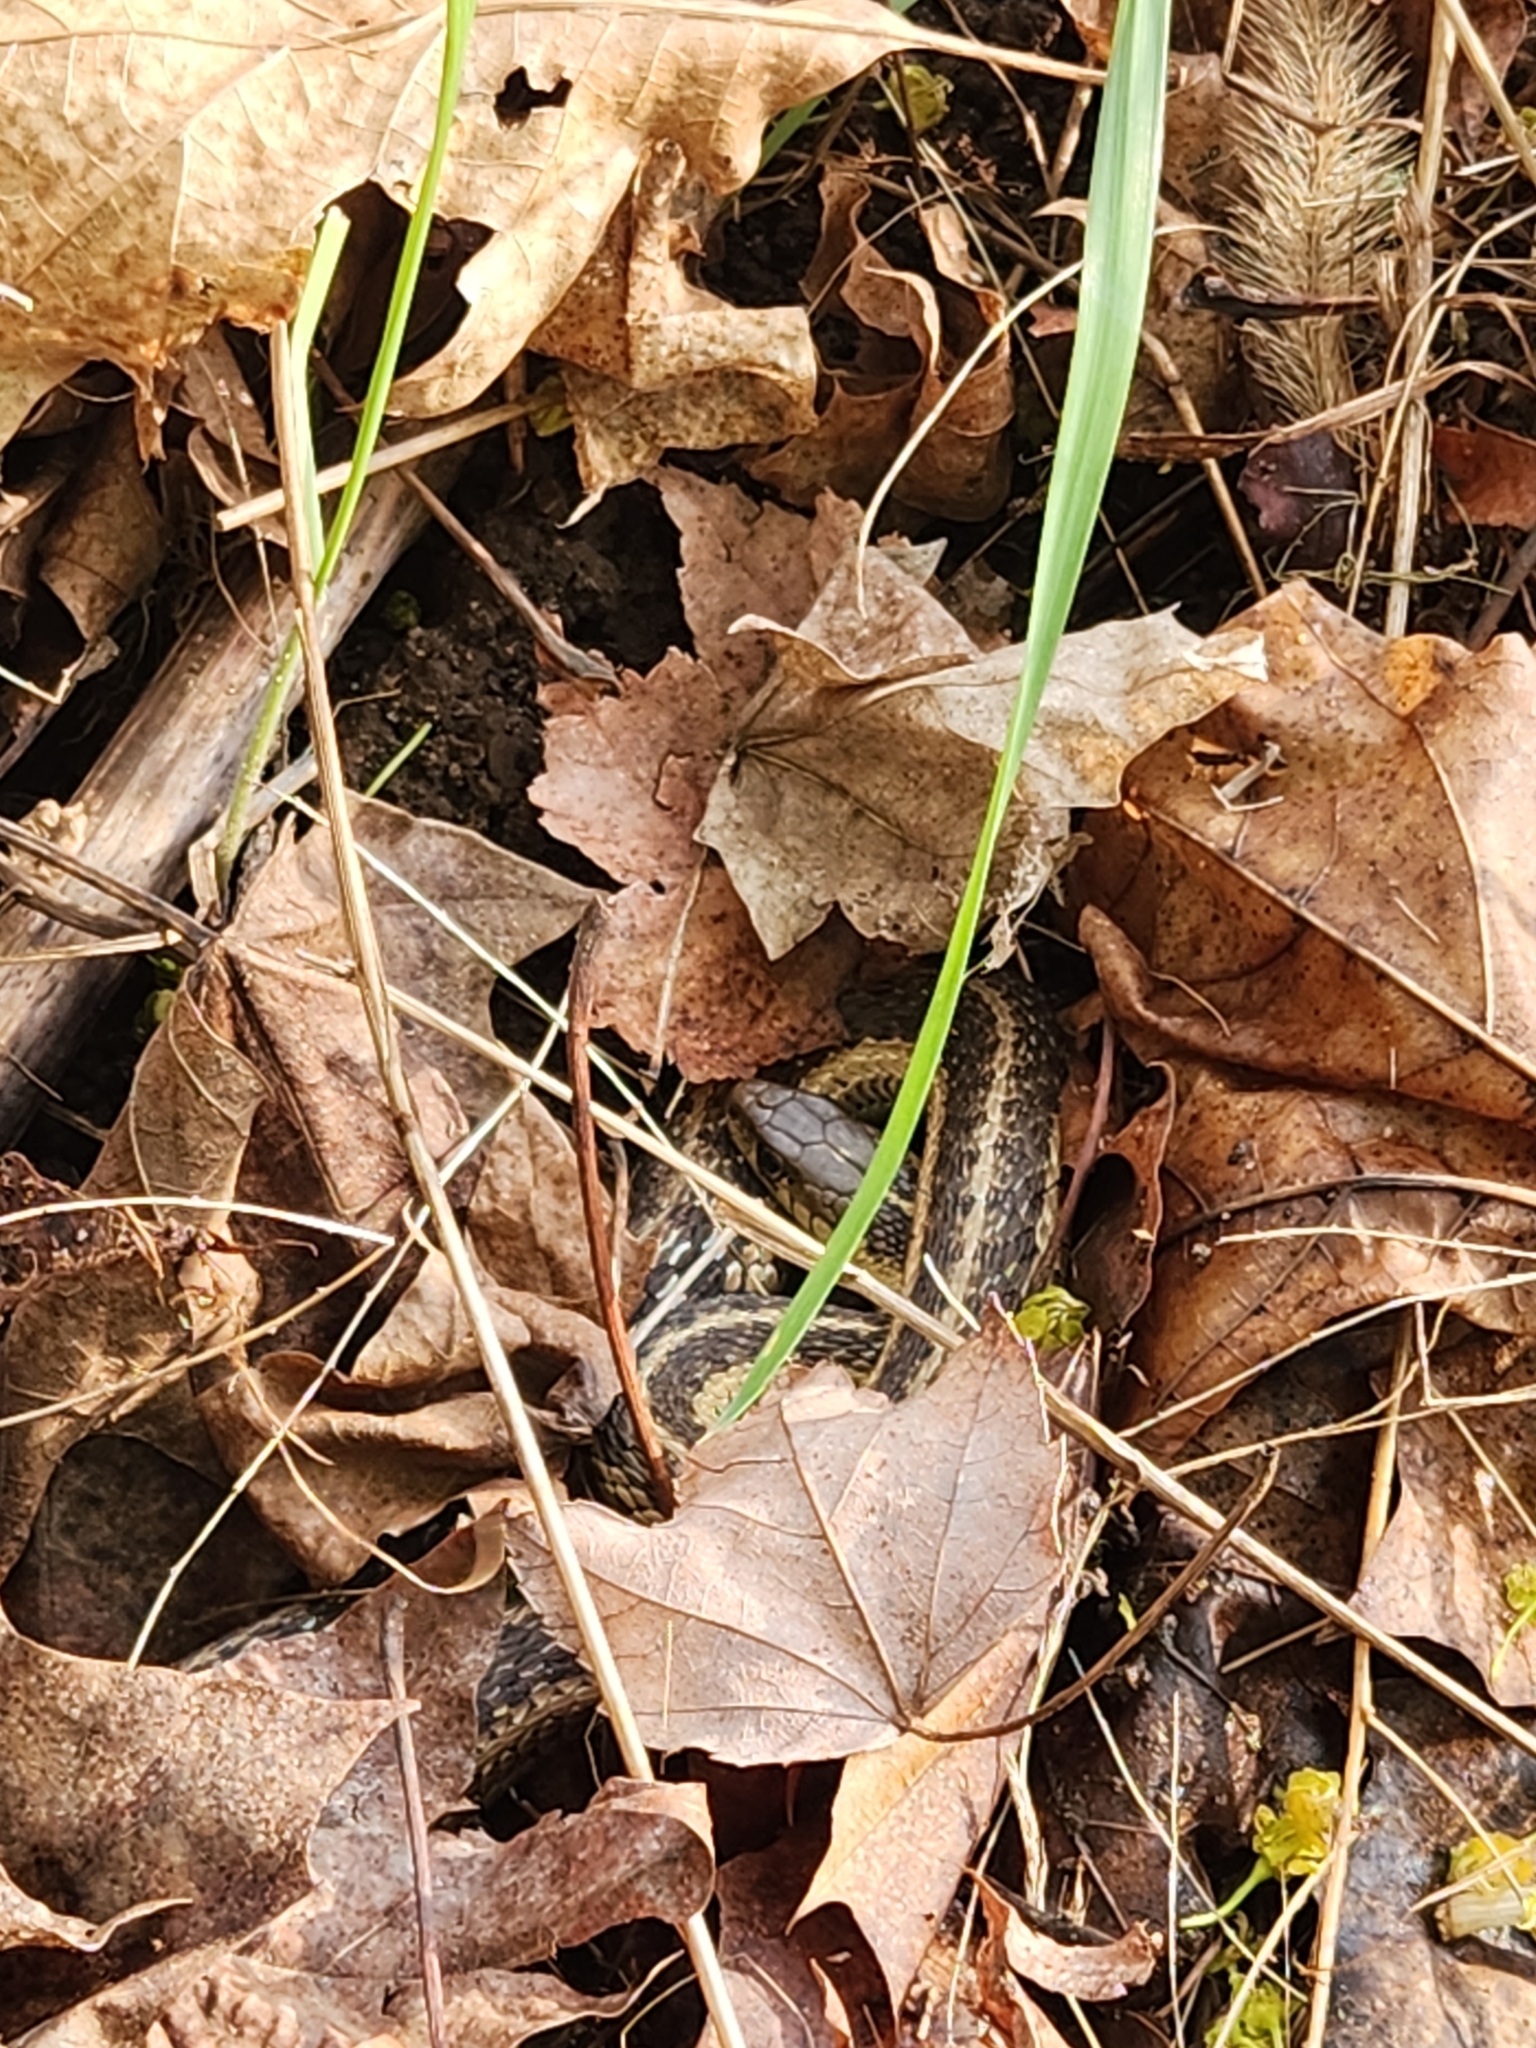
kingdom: Animalia
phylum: Chordata
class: Squamata
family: Colubridae
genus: Thamnophis
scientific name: Thamnophis sirtalis
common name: Common garter snake
